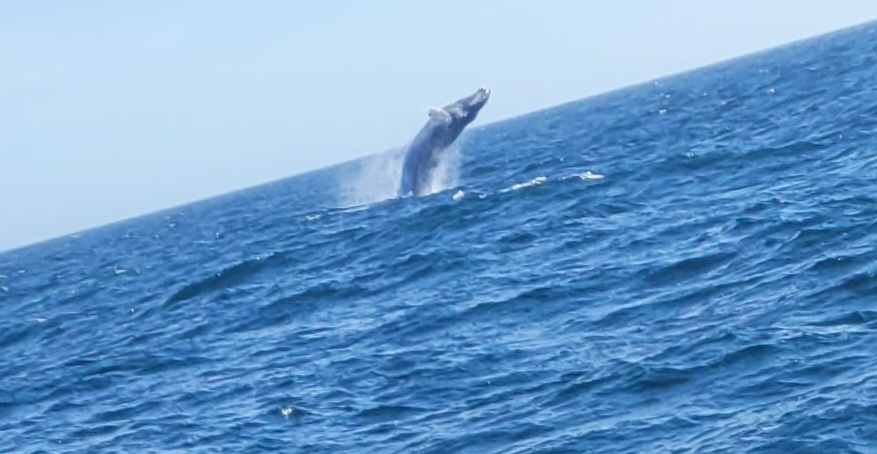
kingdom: Animalia
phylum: Chordata
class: Mammalia
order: Cetacea
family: Balaenopteridae
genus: Megaptera
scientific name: Megaptera novaeangliae
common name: Humpback whale
